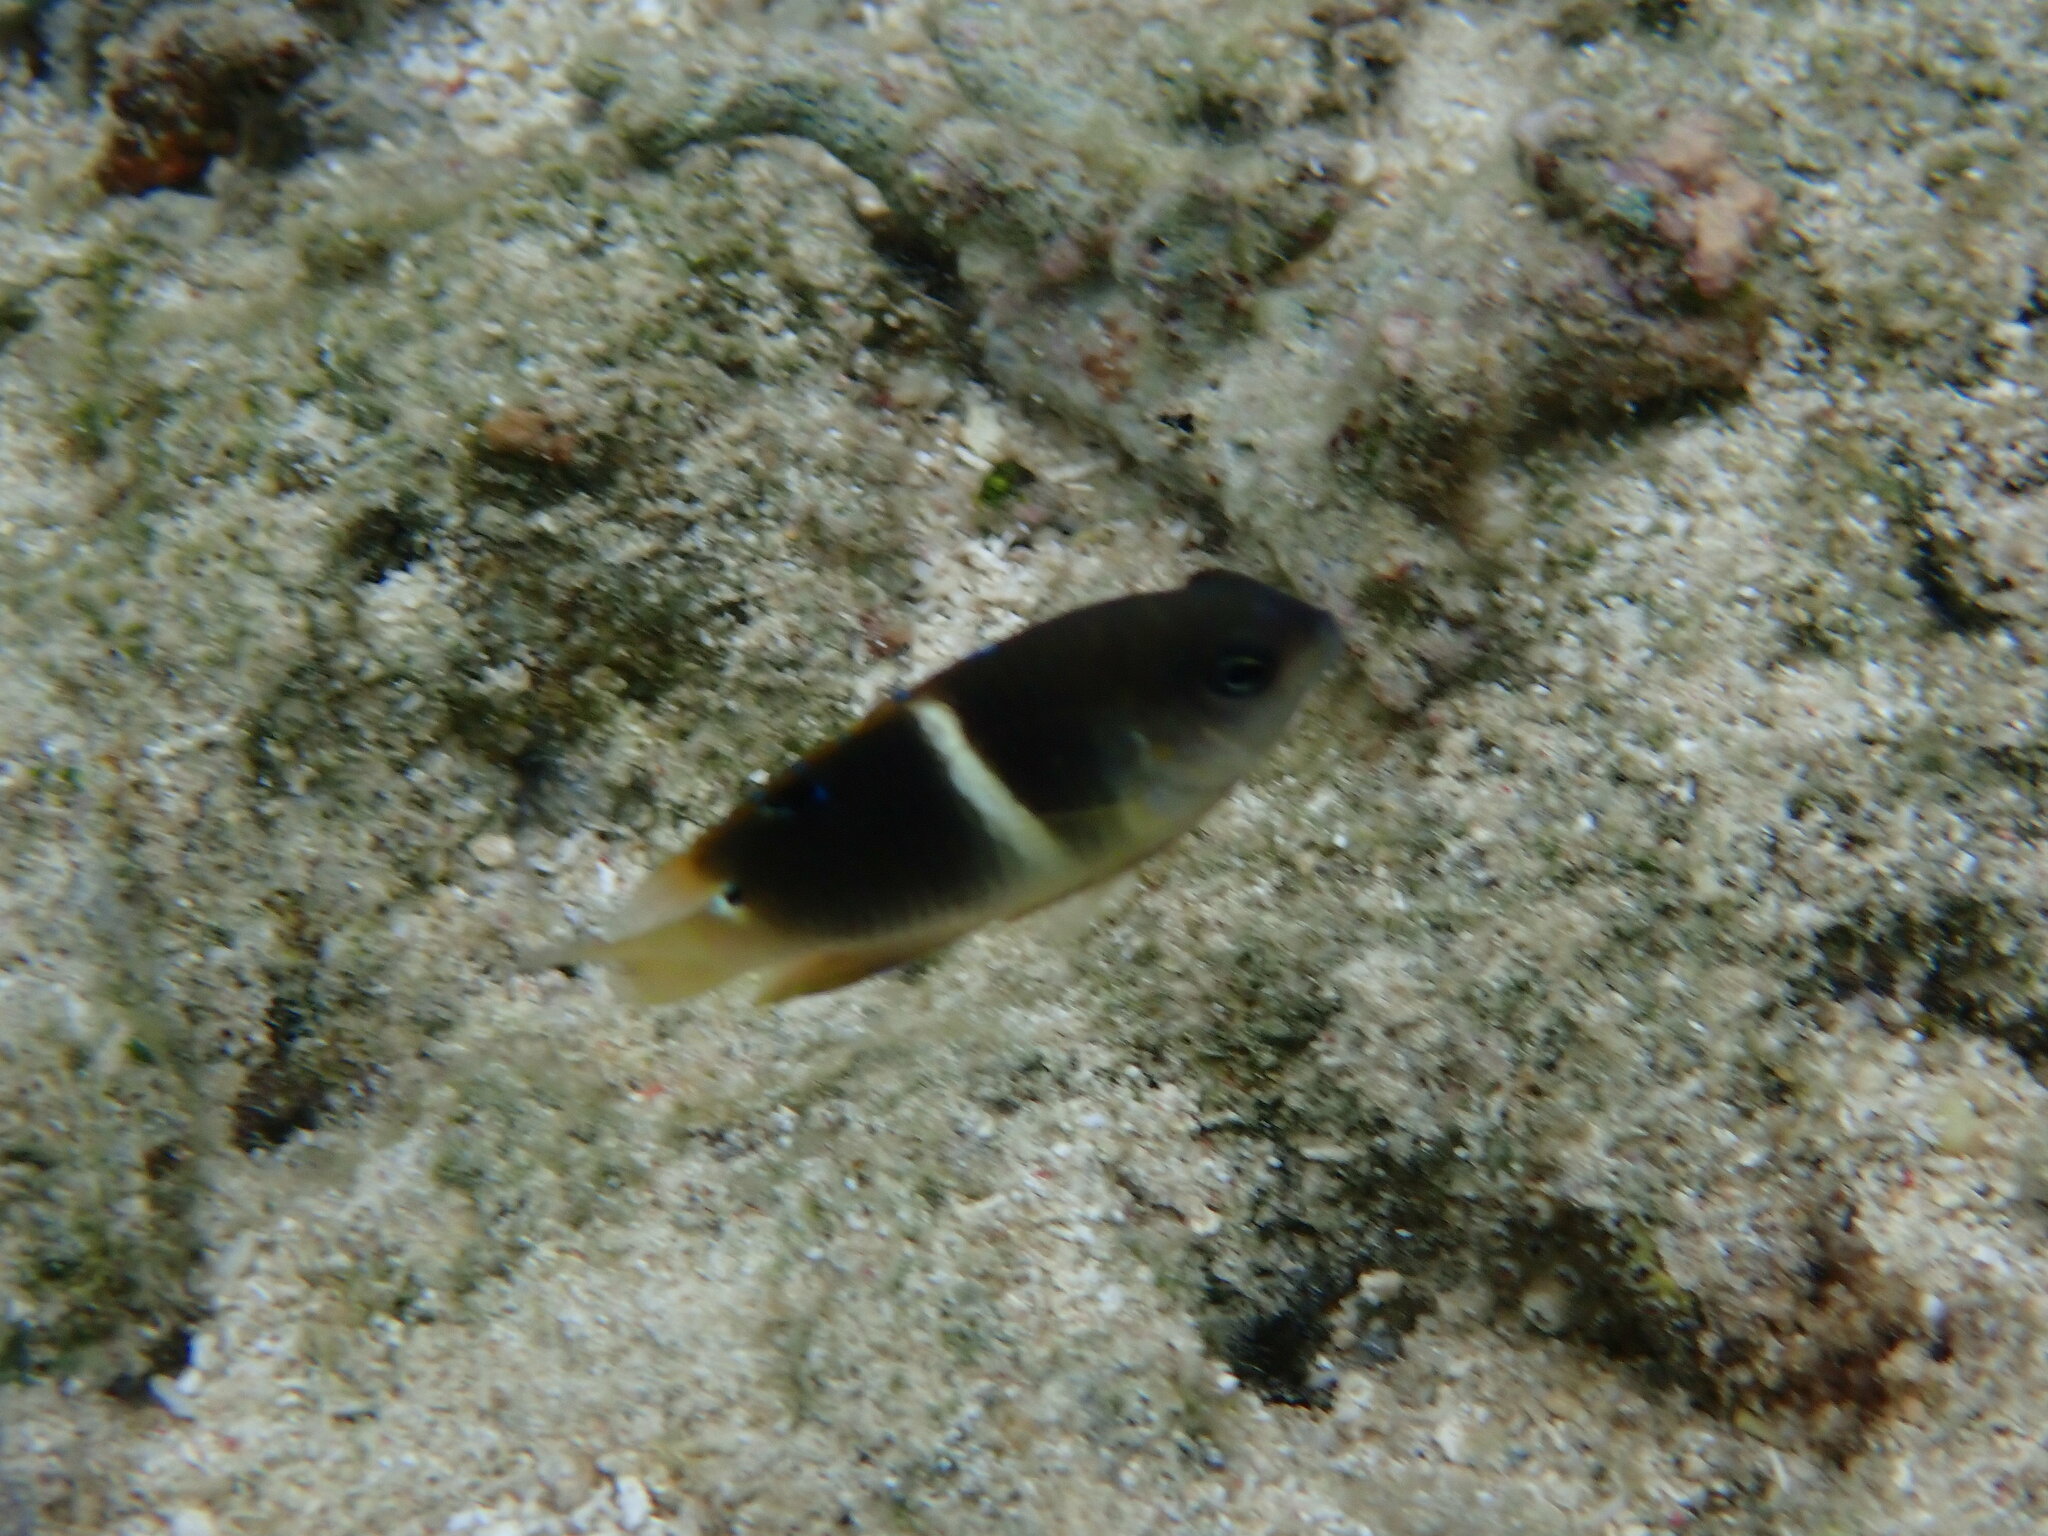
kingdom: Animalia
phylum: Chordata
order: Perciformes
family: Pomacentridae
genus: Chrysiptera
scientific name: Chrysiptera biocellata
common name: Twinspot damselfish
